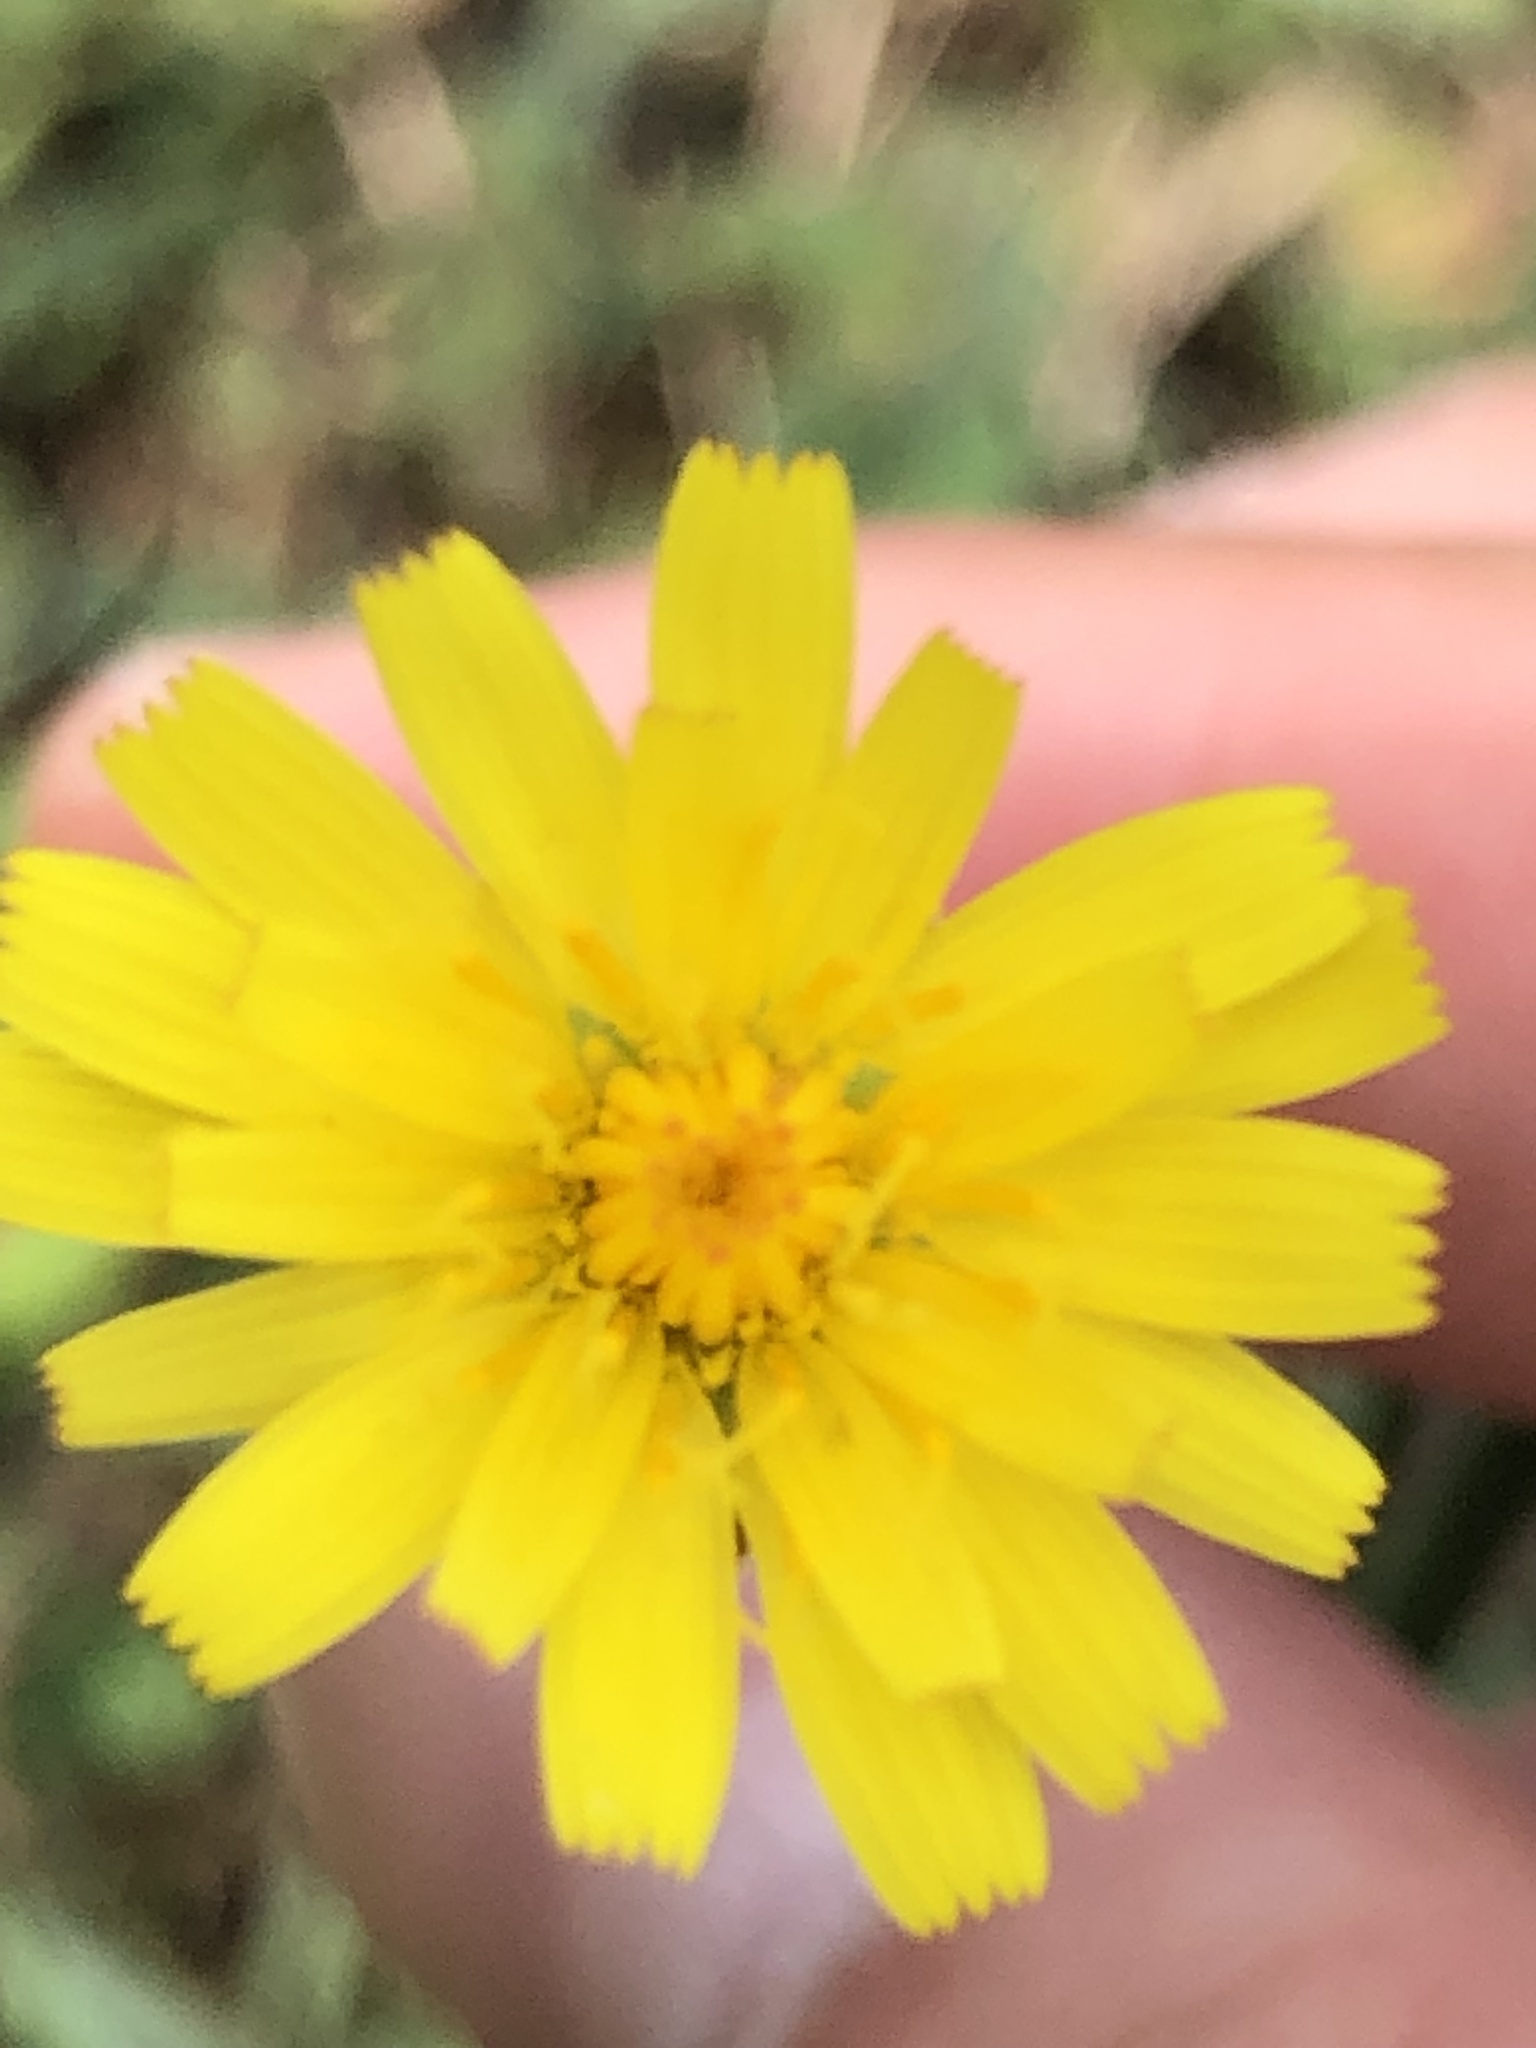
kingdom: Plantae
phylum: Tracheophyta
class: Magnoliopsida
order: Asterales
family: Asteraceae
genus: Hypochaeris
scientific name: Hypochaeris radicata
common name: Flatweed
